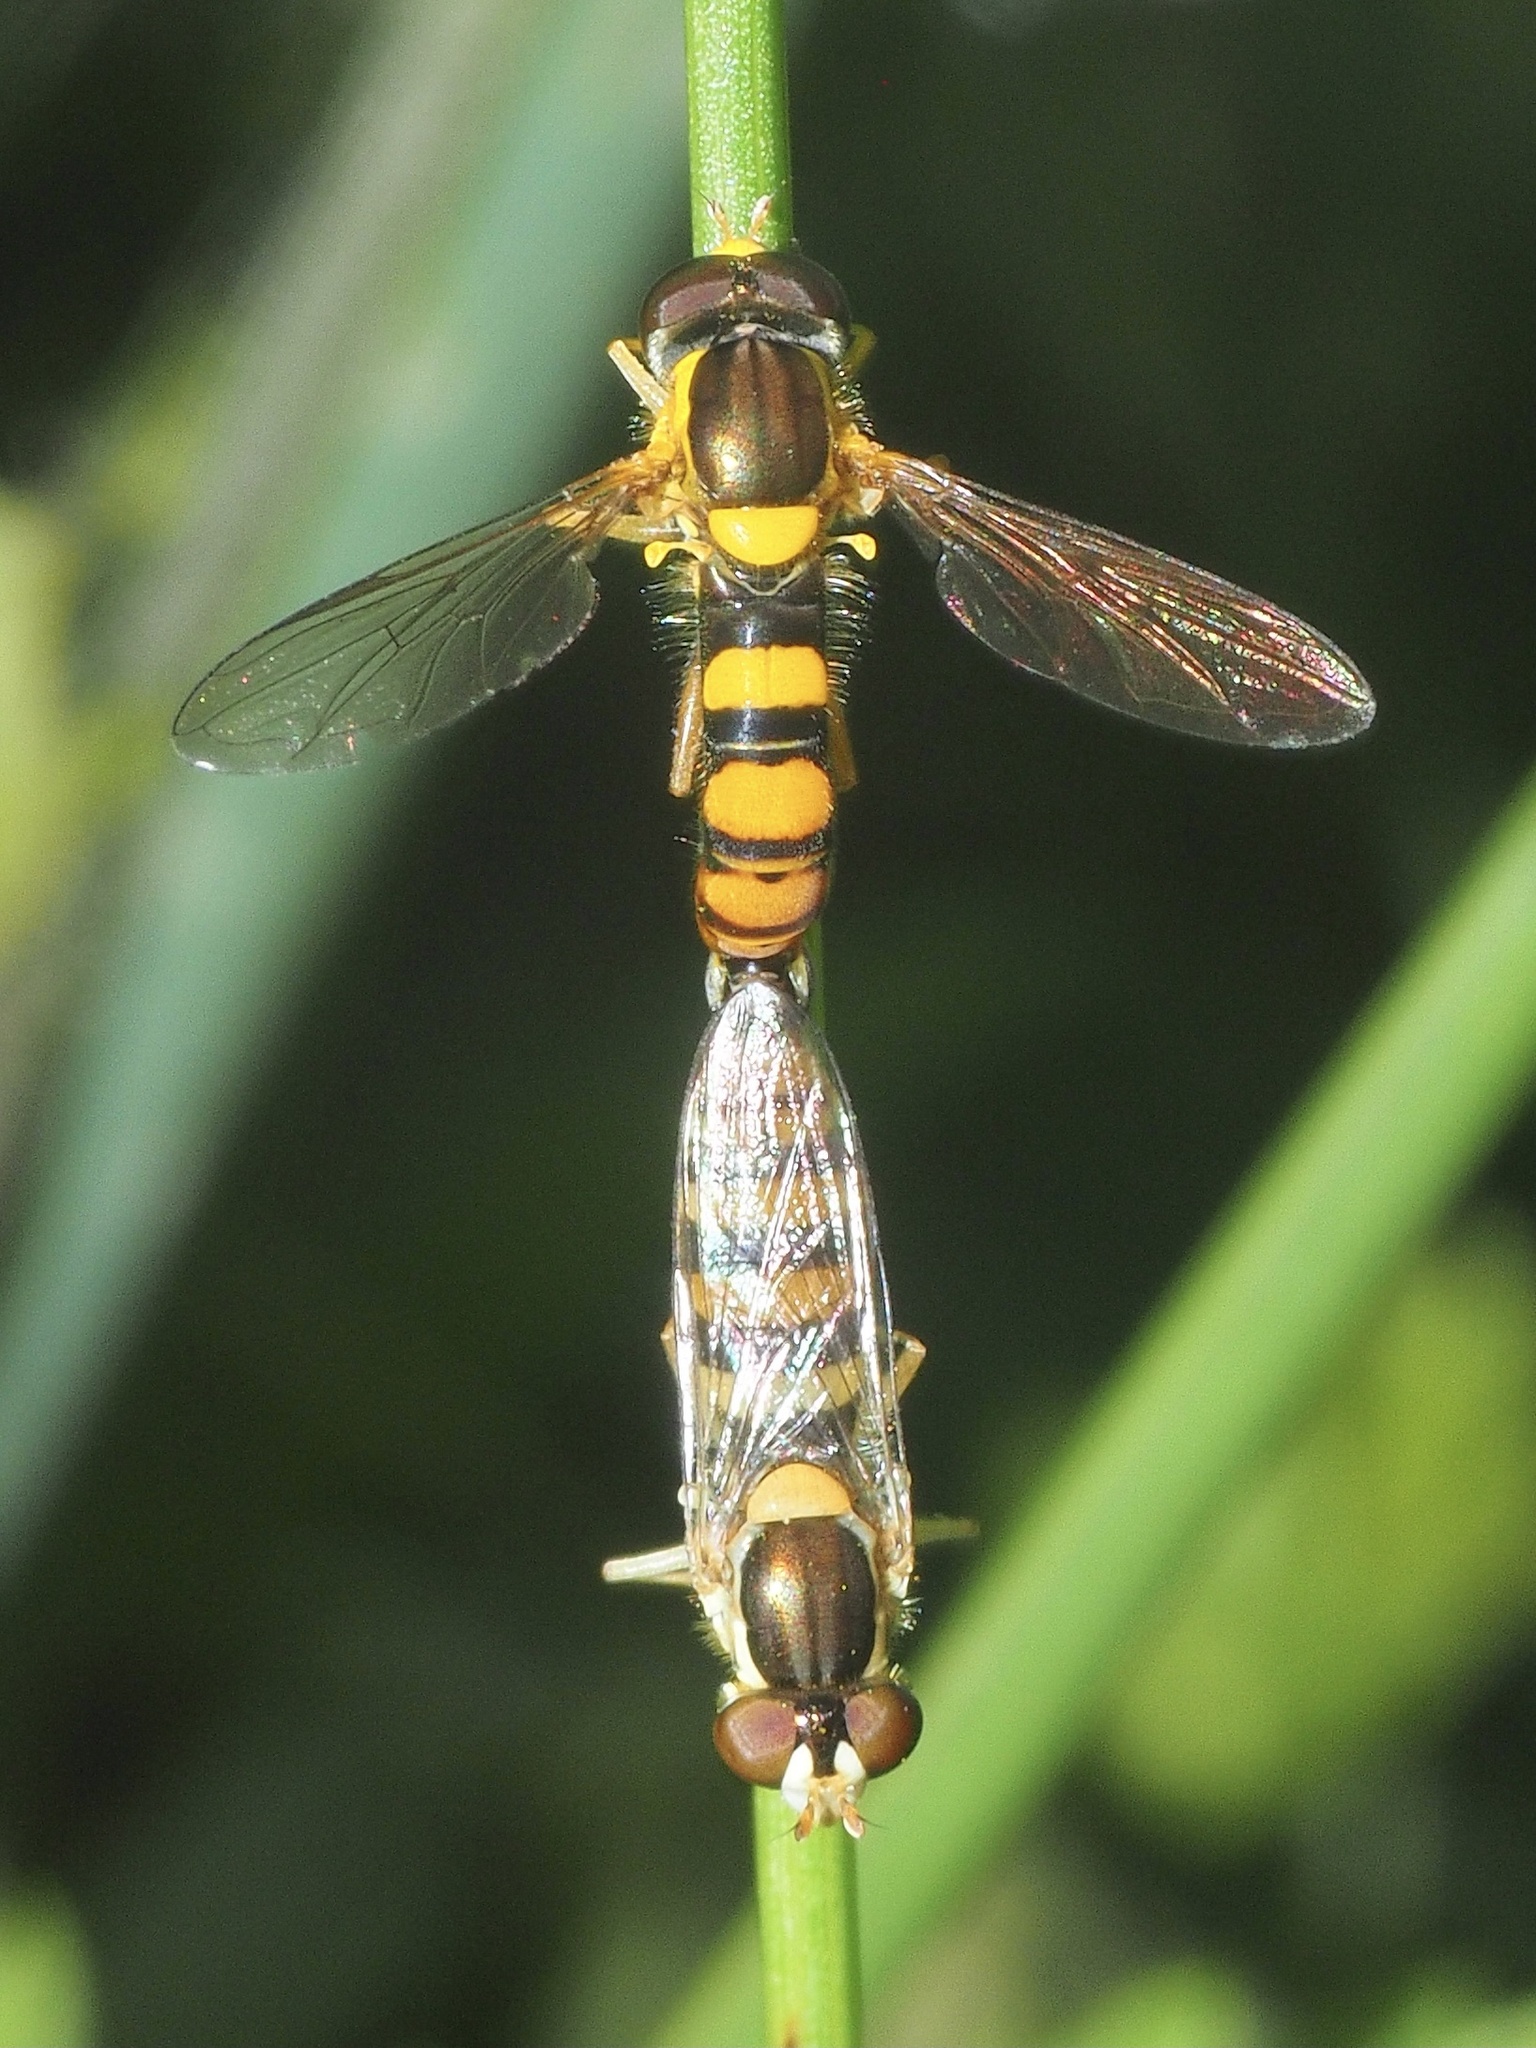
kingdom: Animalia
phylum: Arthropoda
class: Insecta
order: Diptera
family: Syrphidae
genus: Sphaerophoria
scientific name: Sphaerophoria
